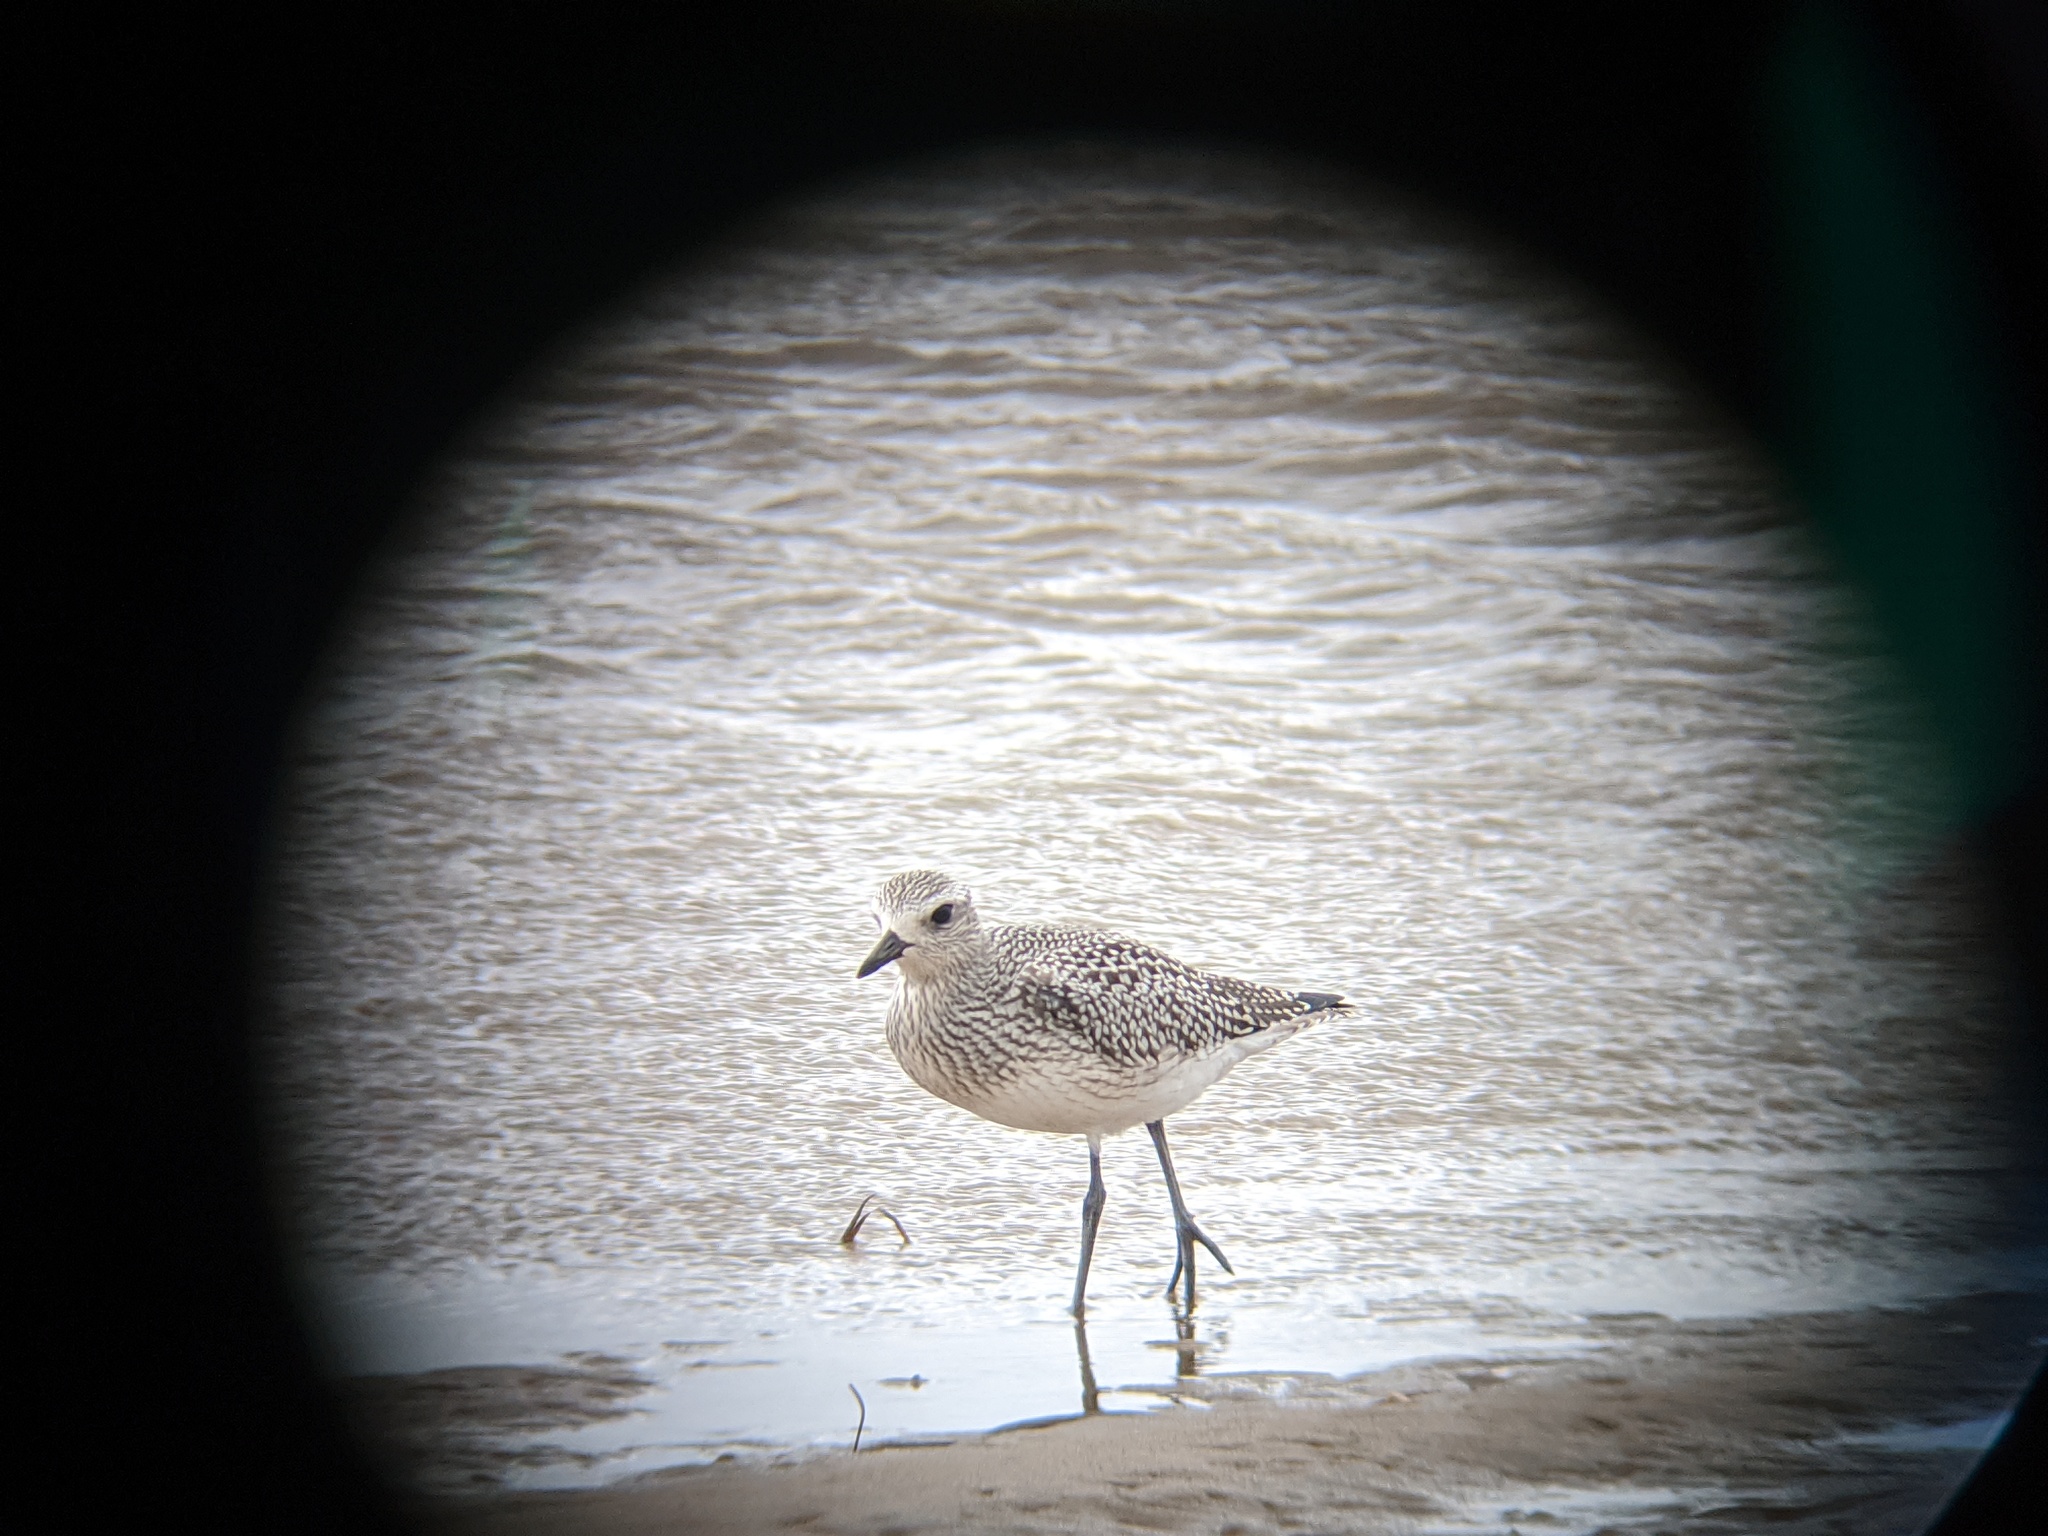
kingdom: Animalia
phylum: Chordata
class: Aves
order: Charadriiformes
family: Charadriidae
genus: Pluvialis
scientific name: Pluvialis squatarola
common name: Grey plover
